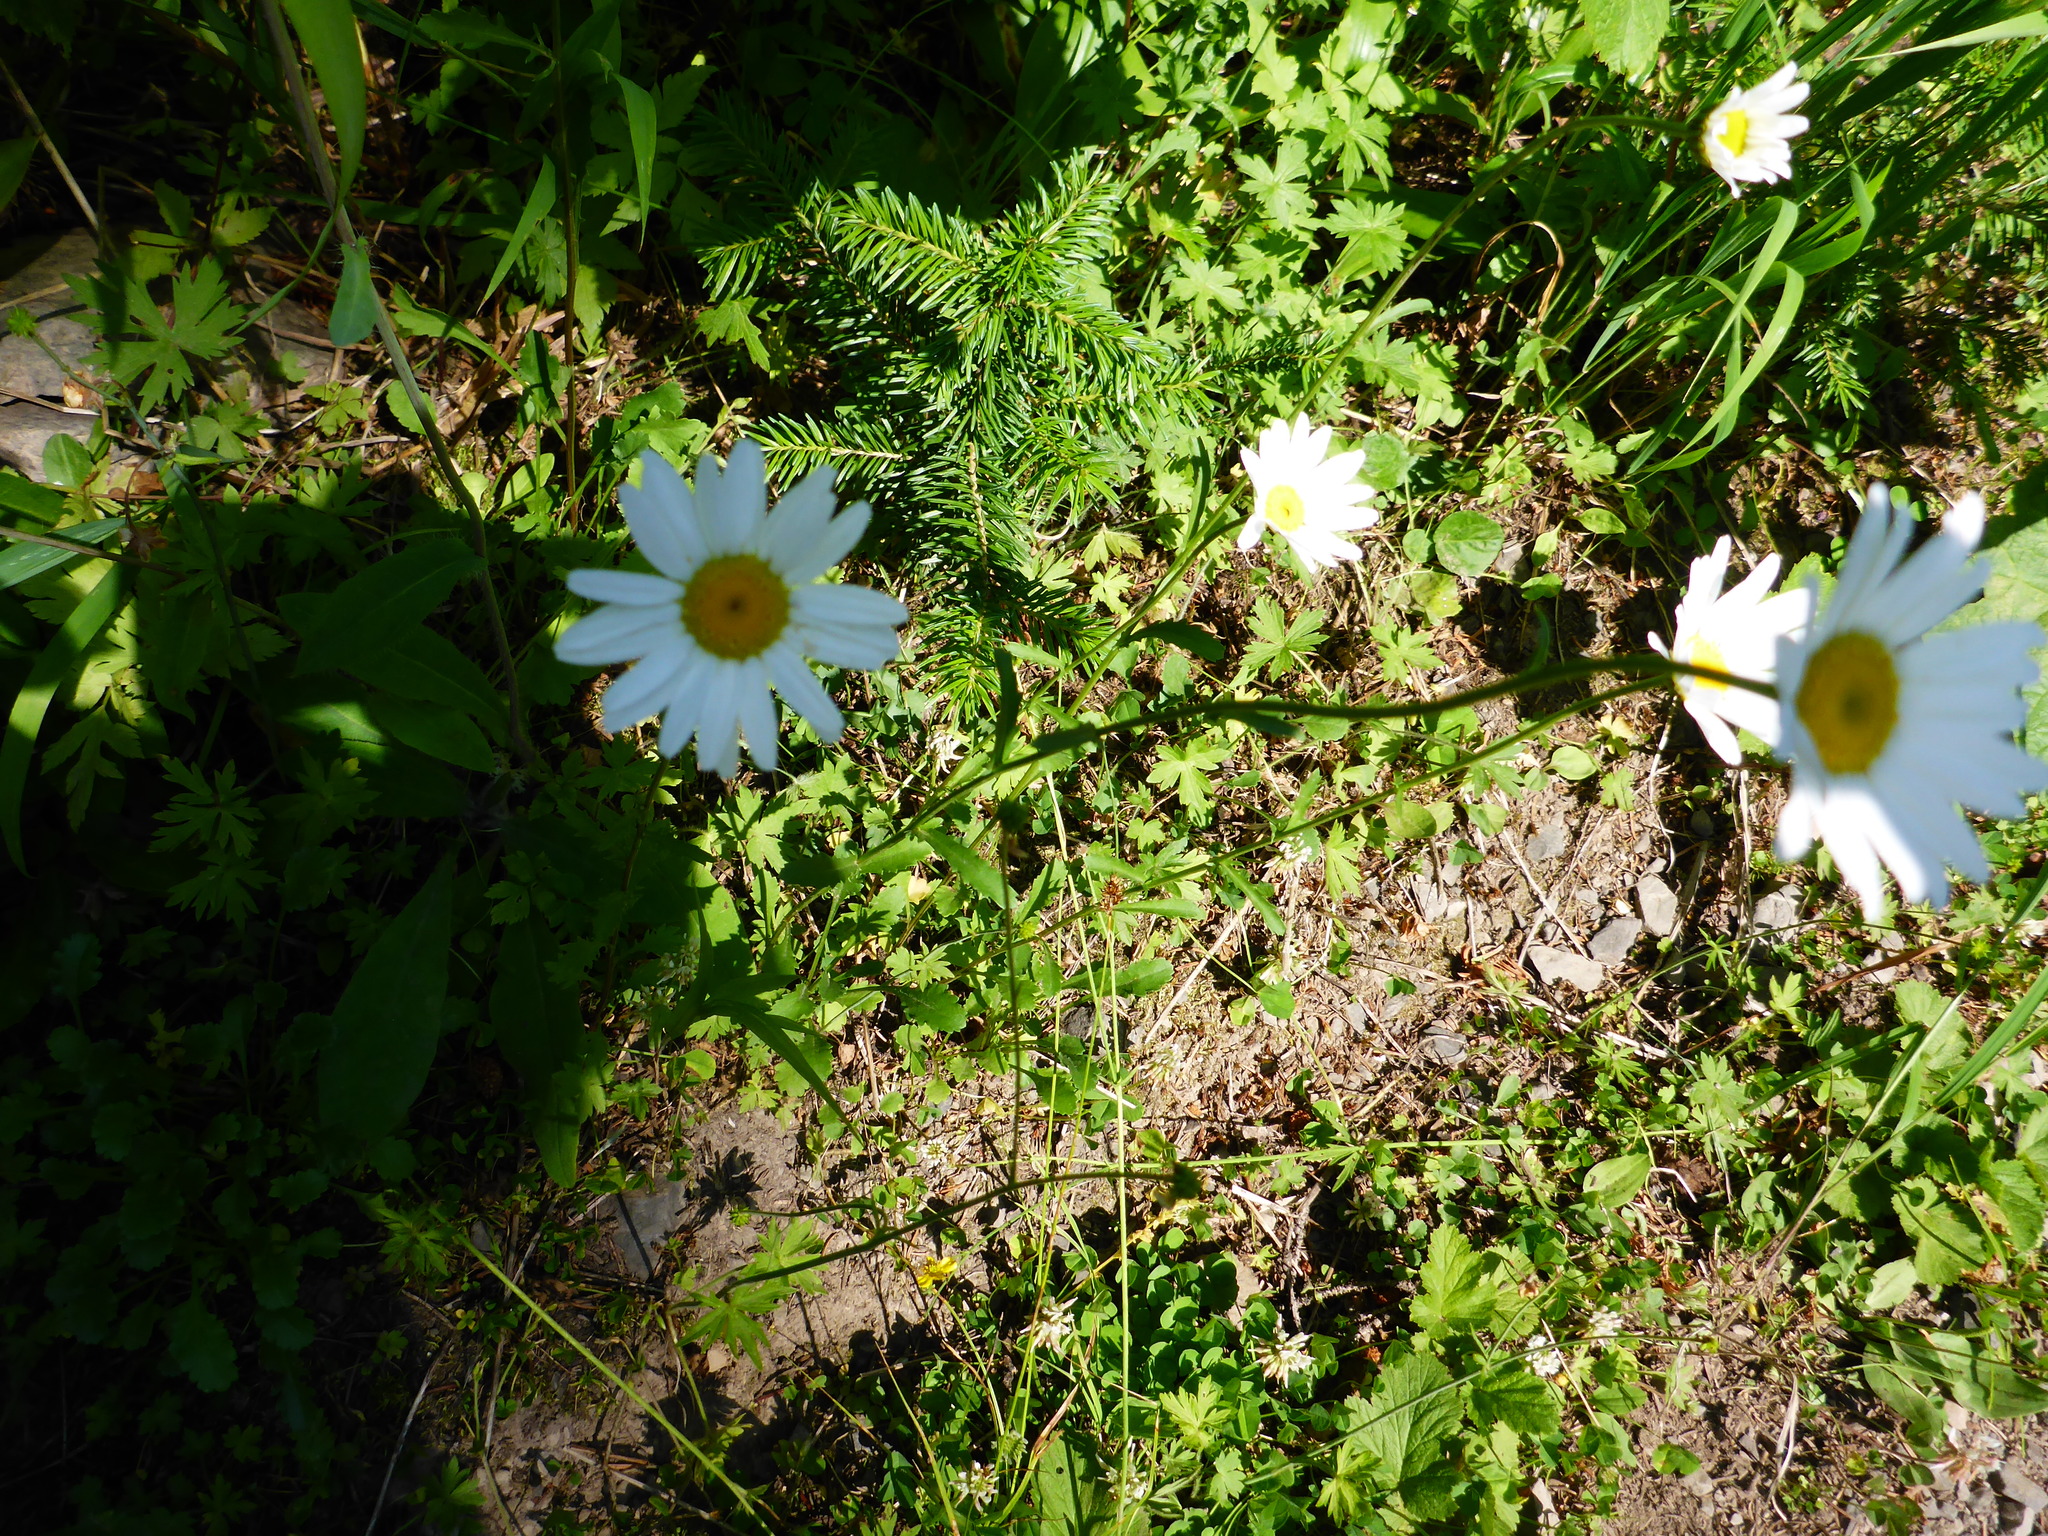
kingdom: Plantae
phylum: Tracheophyta
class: Magnoliopsida
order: Asterales
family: Asteraceae
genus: Leucanthemum
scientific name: Leucanthemum vulgare
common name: Oxeye daisy
